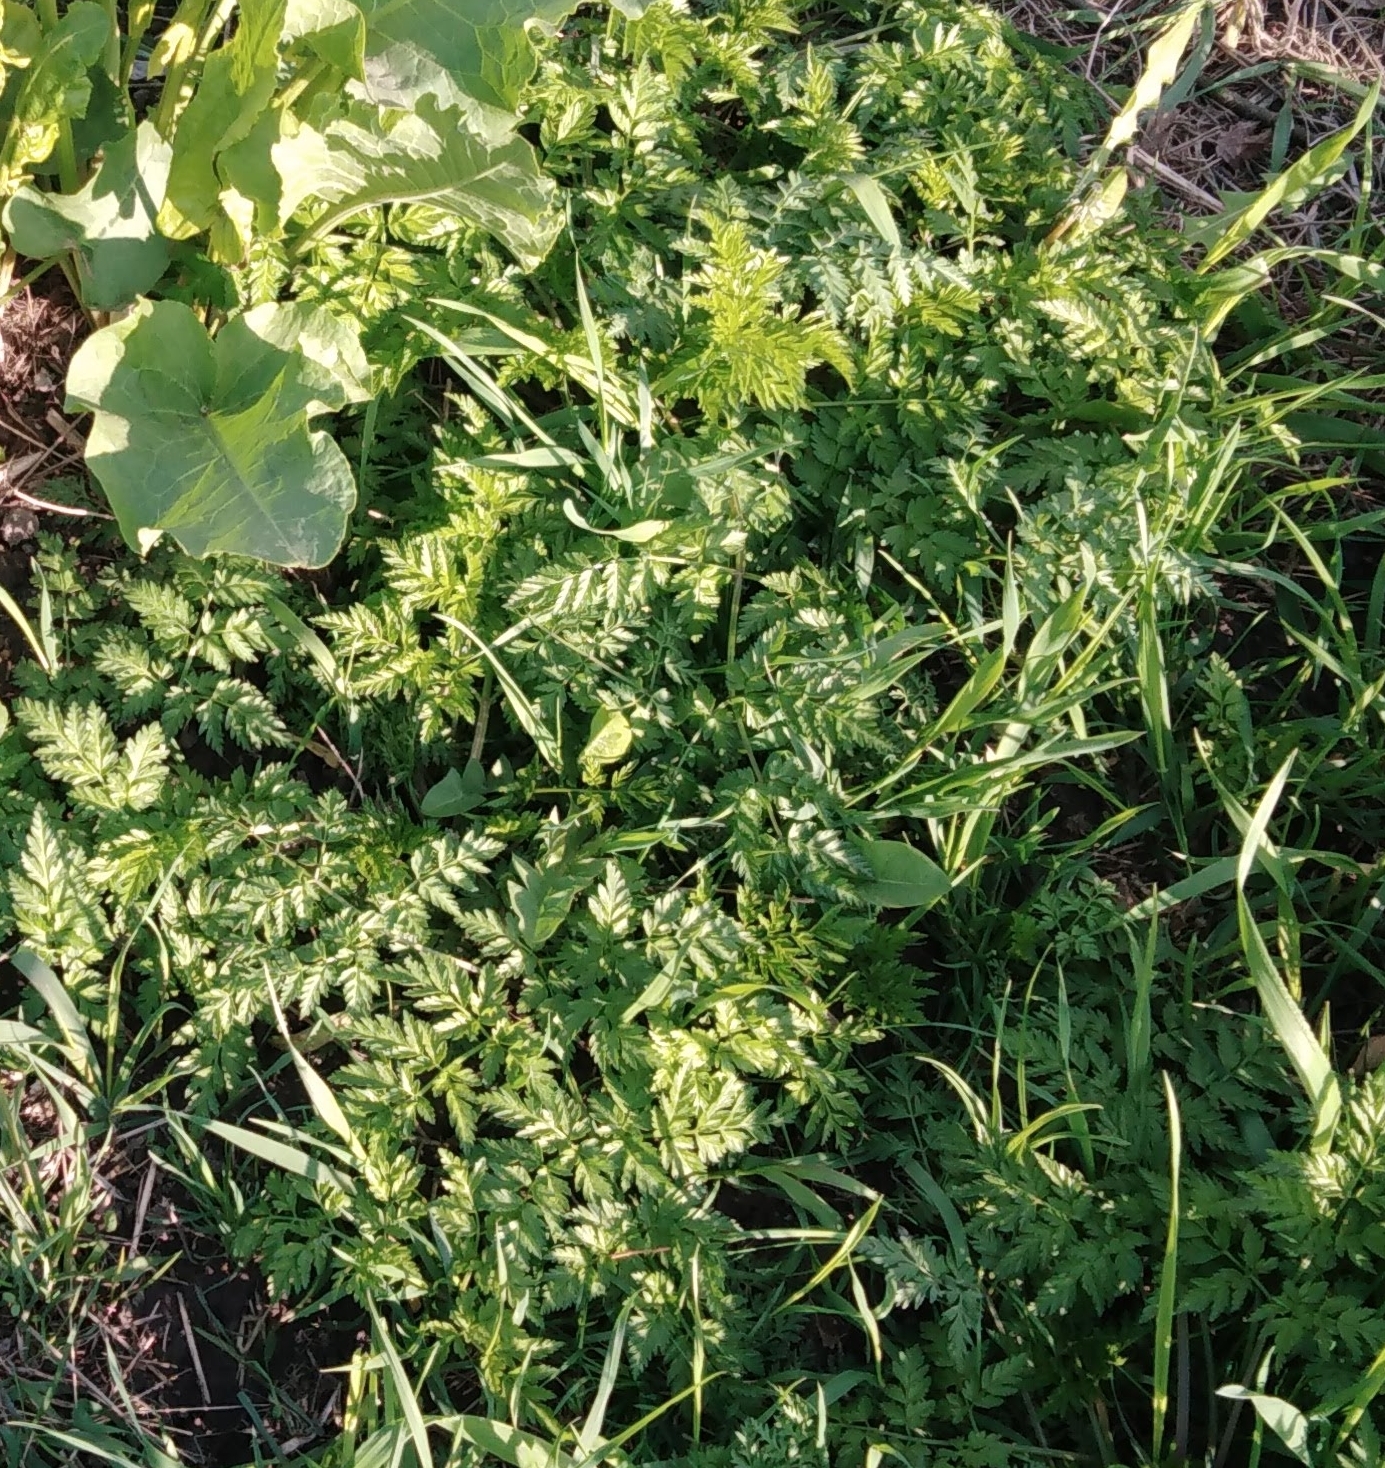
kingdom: Plantae
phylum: Tracheophyta
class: Magnoliopsida
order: Apiales
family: Apiaceae
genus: Anthriscus
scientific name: Anthriscus sylvestris
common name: Cow parsley
